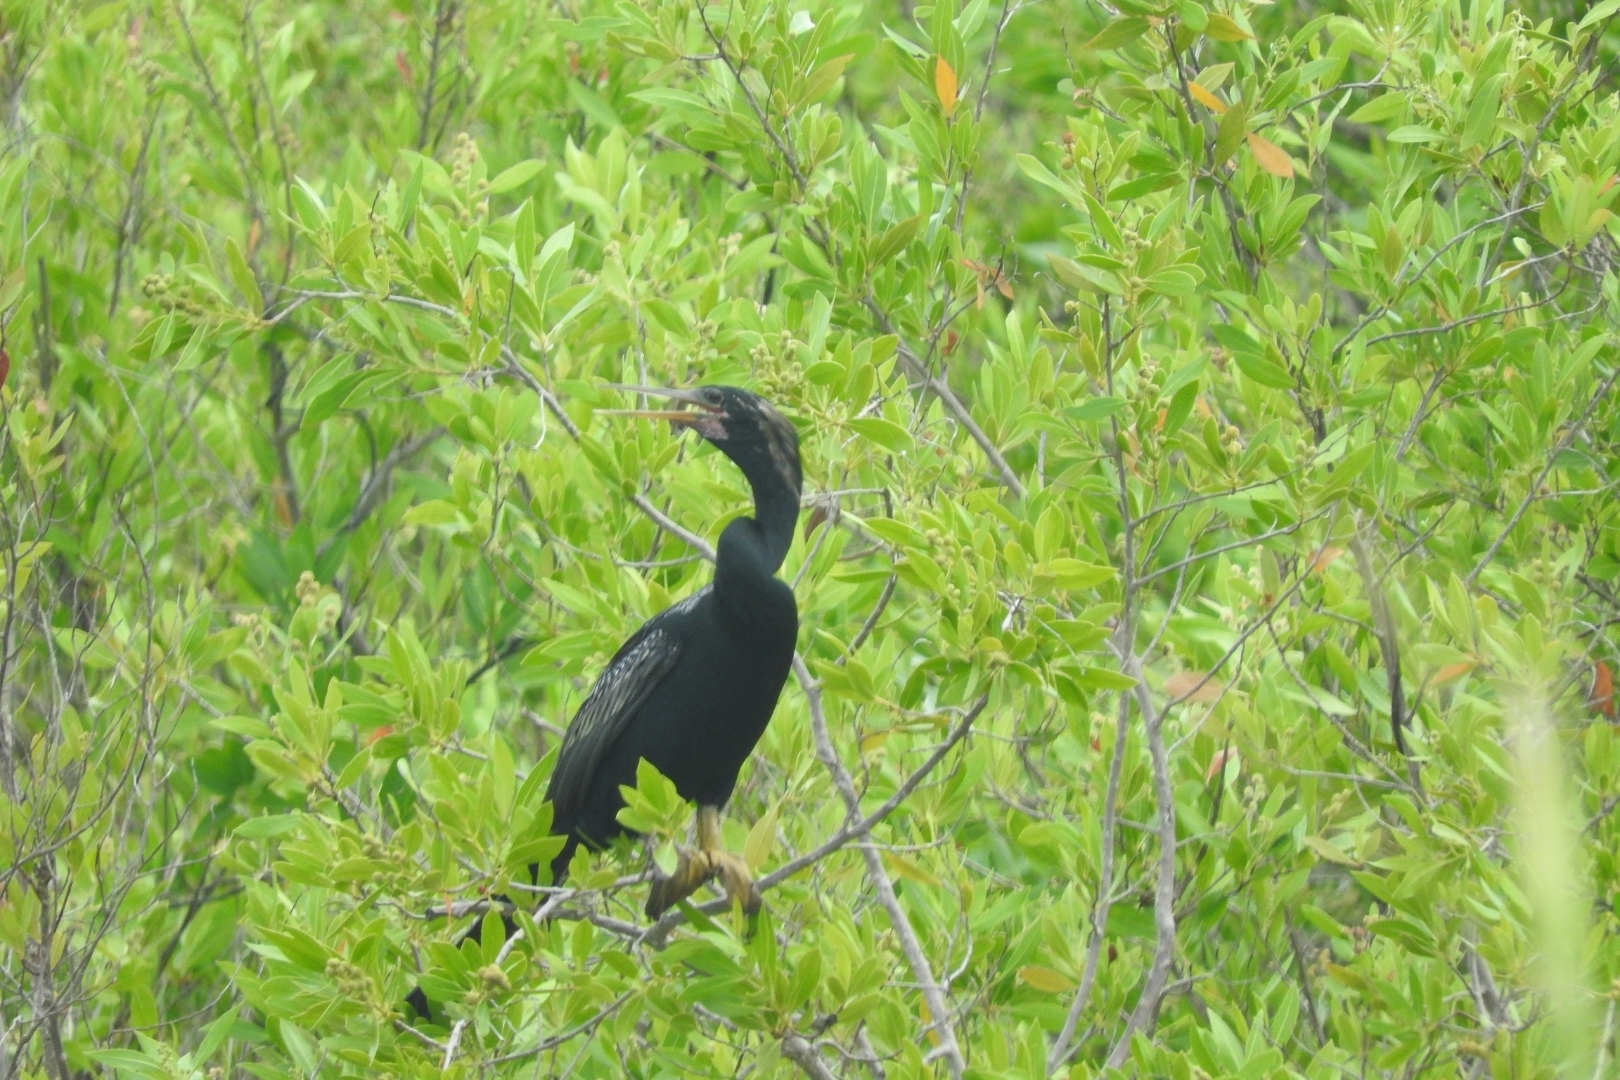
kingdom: Animalia
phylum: Chordata
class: Aves
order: Suliformes
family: Anhingidae
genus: Anhinga
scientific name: Anhinga anhinga
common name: Anhinga
